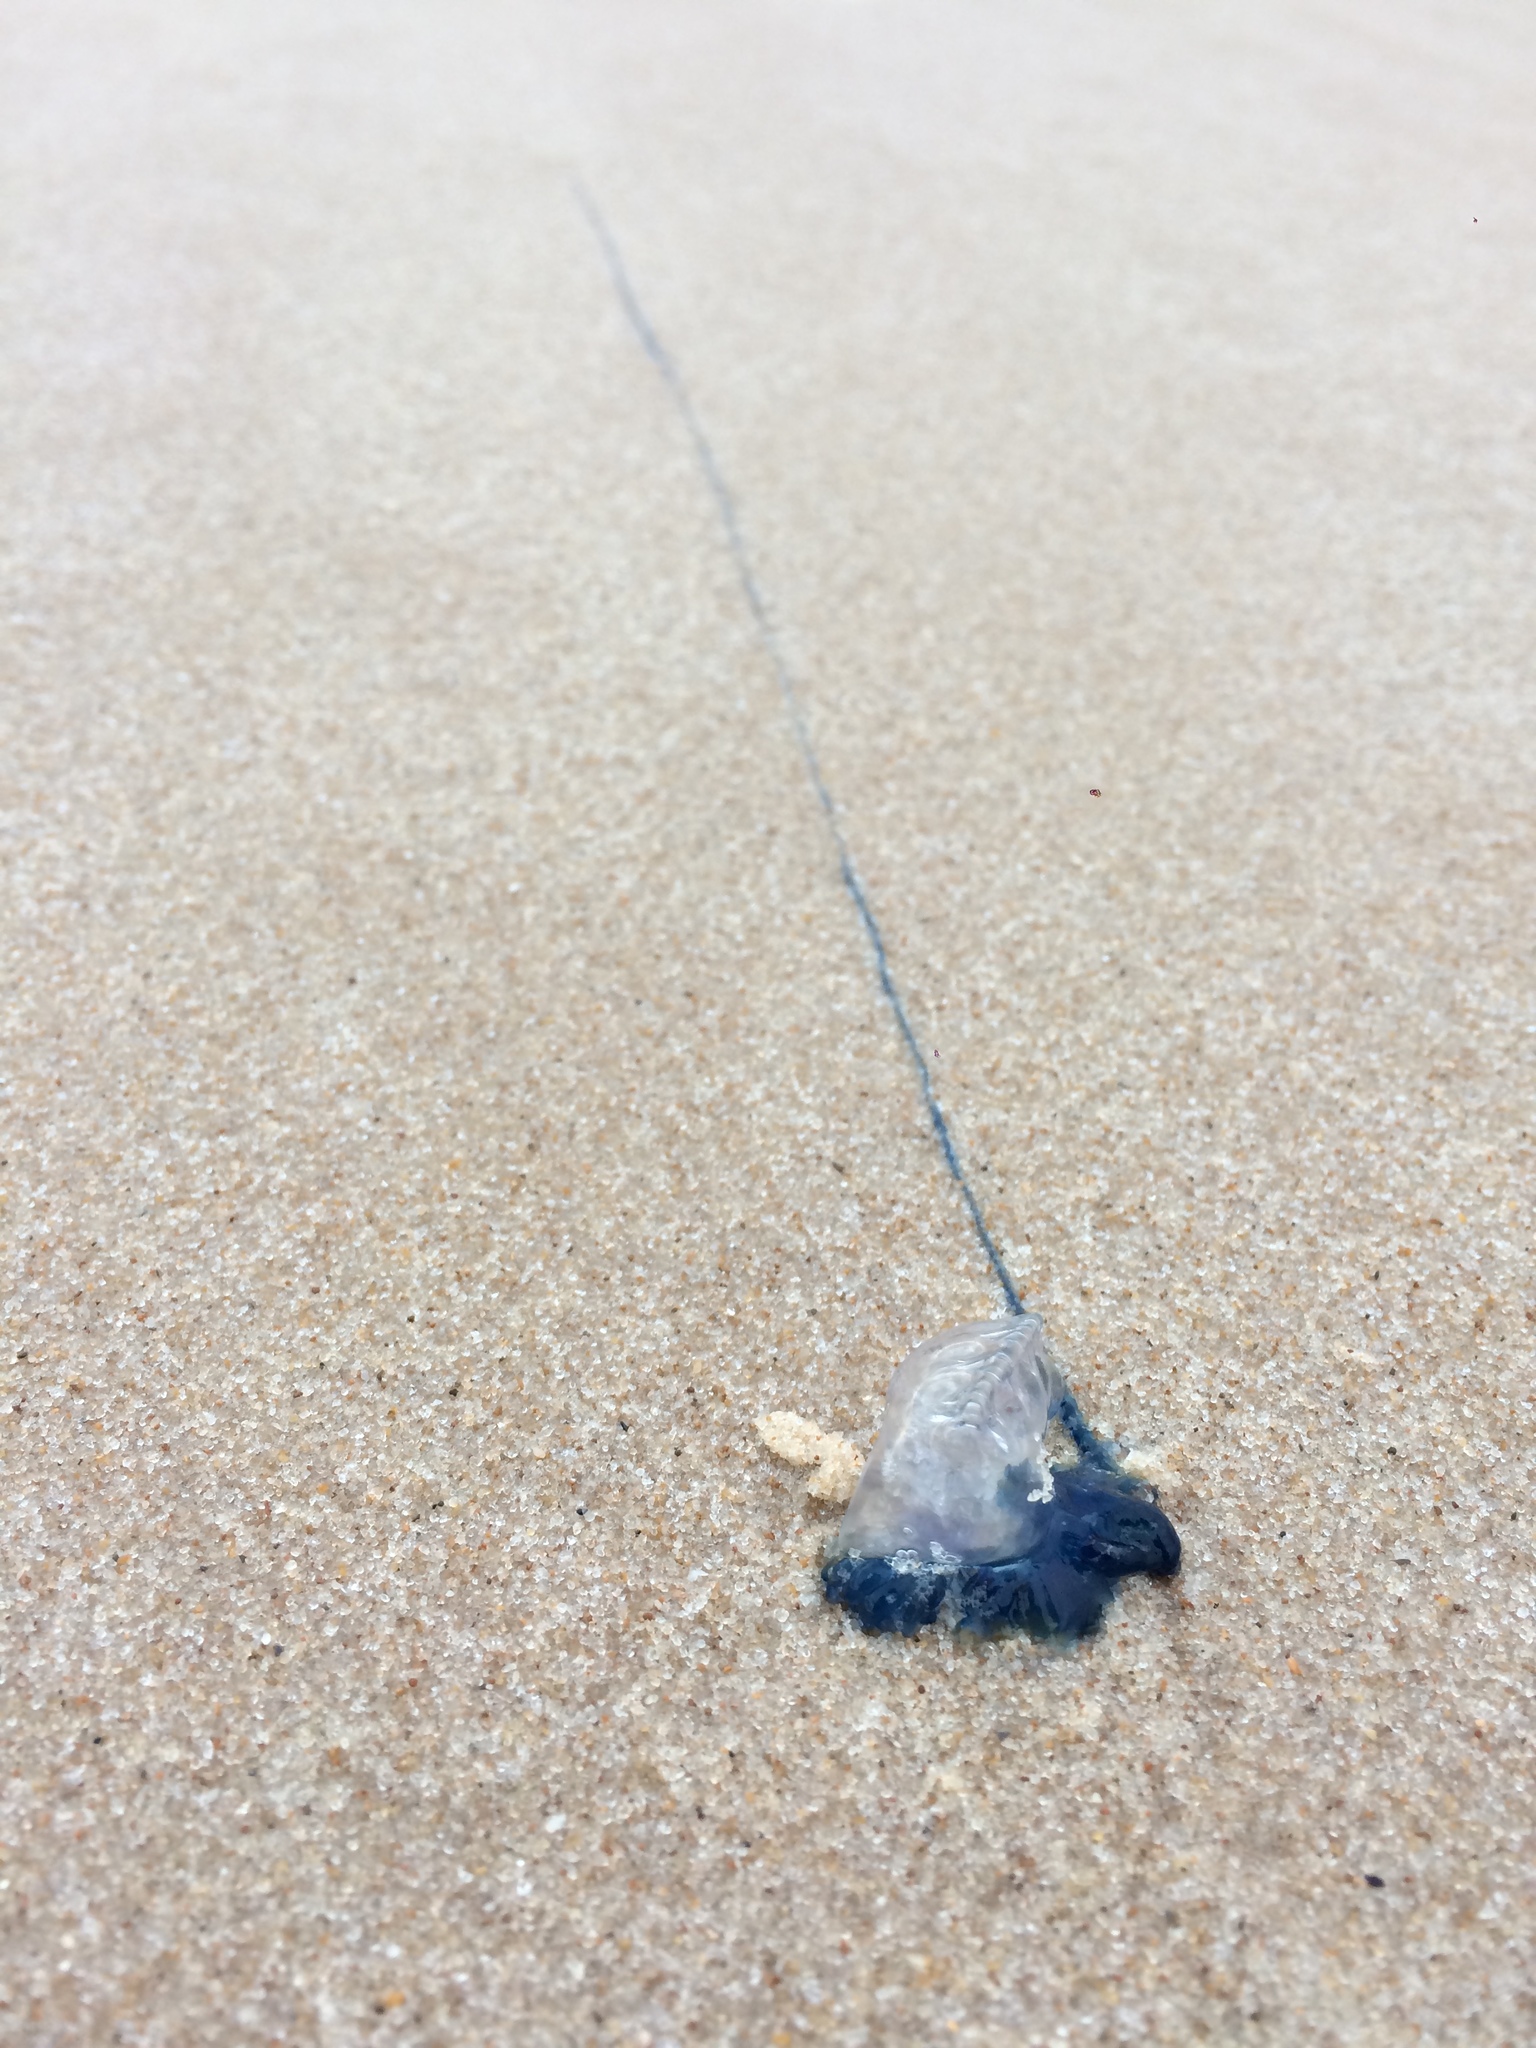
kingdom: Animalia
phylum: Cnidaria
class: Hydrozoa
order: Siphonophorae
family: Physaliidae
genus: Physalia
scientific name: Physalia physalis
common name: Portuguese man-of-war
